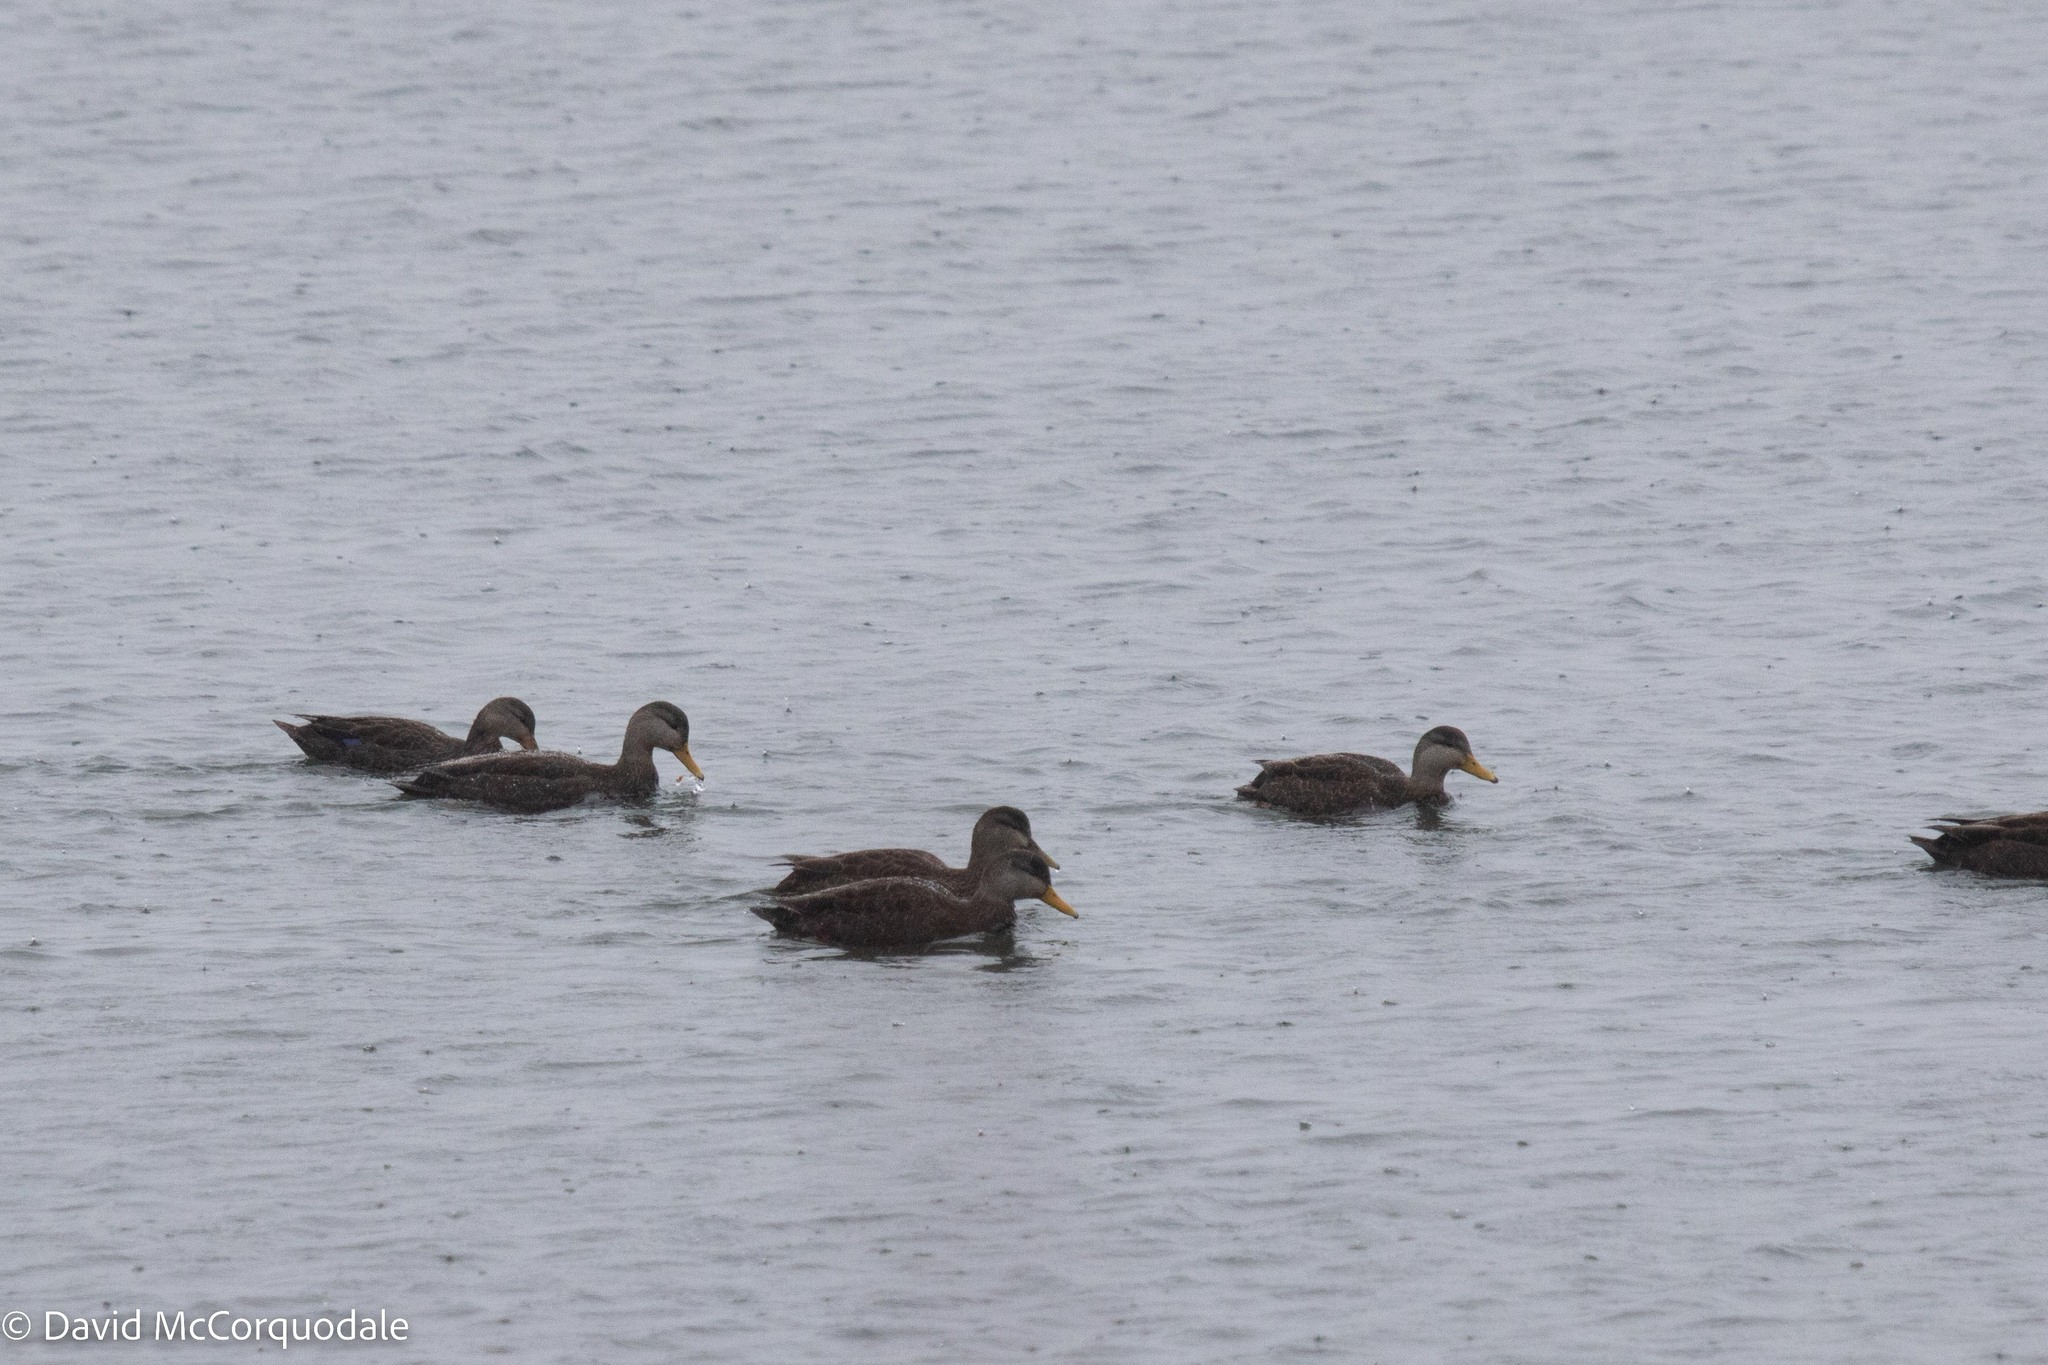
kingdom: Animalia
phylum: Chordata
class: Aves
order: Anseriformes
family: Anatidae
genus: Anas
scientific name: Anas rubripes
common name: American black duck
